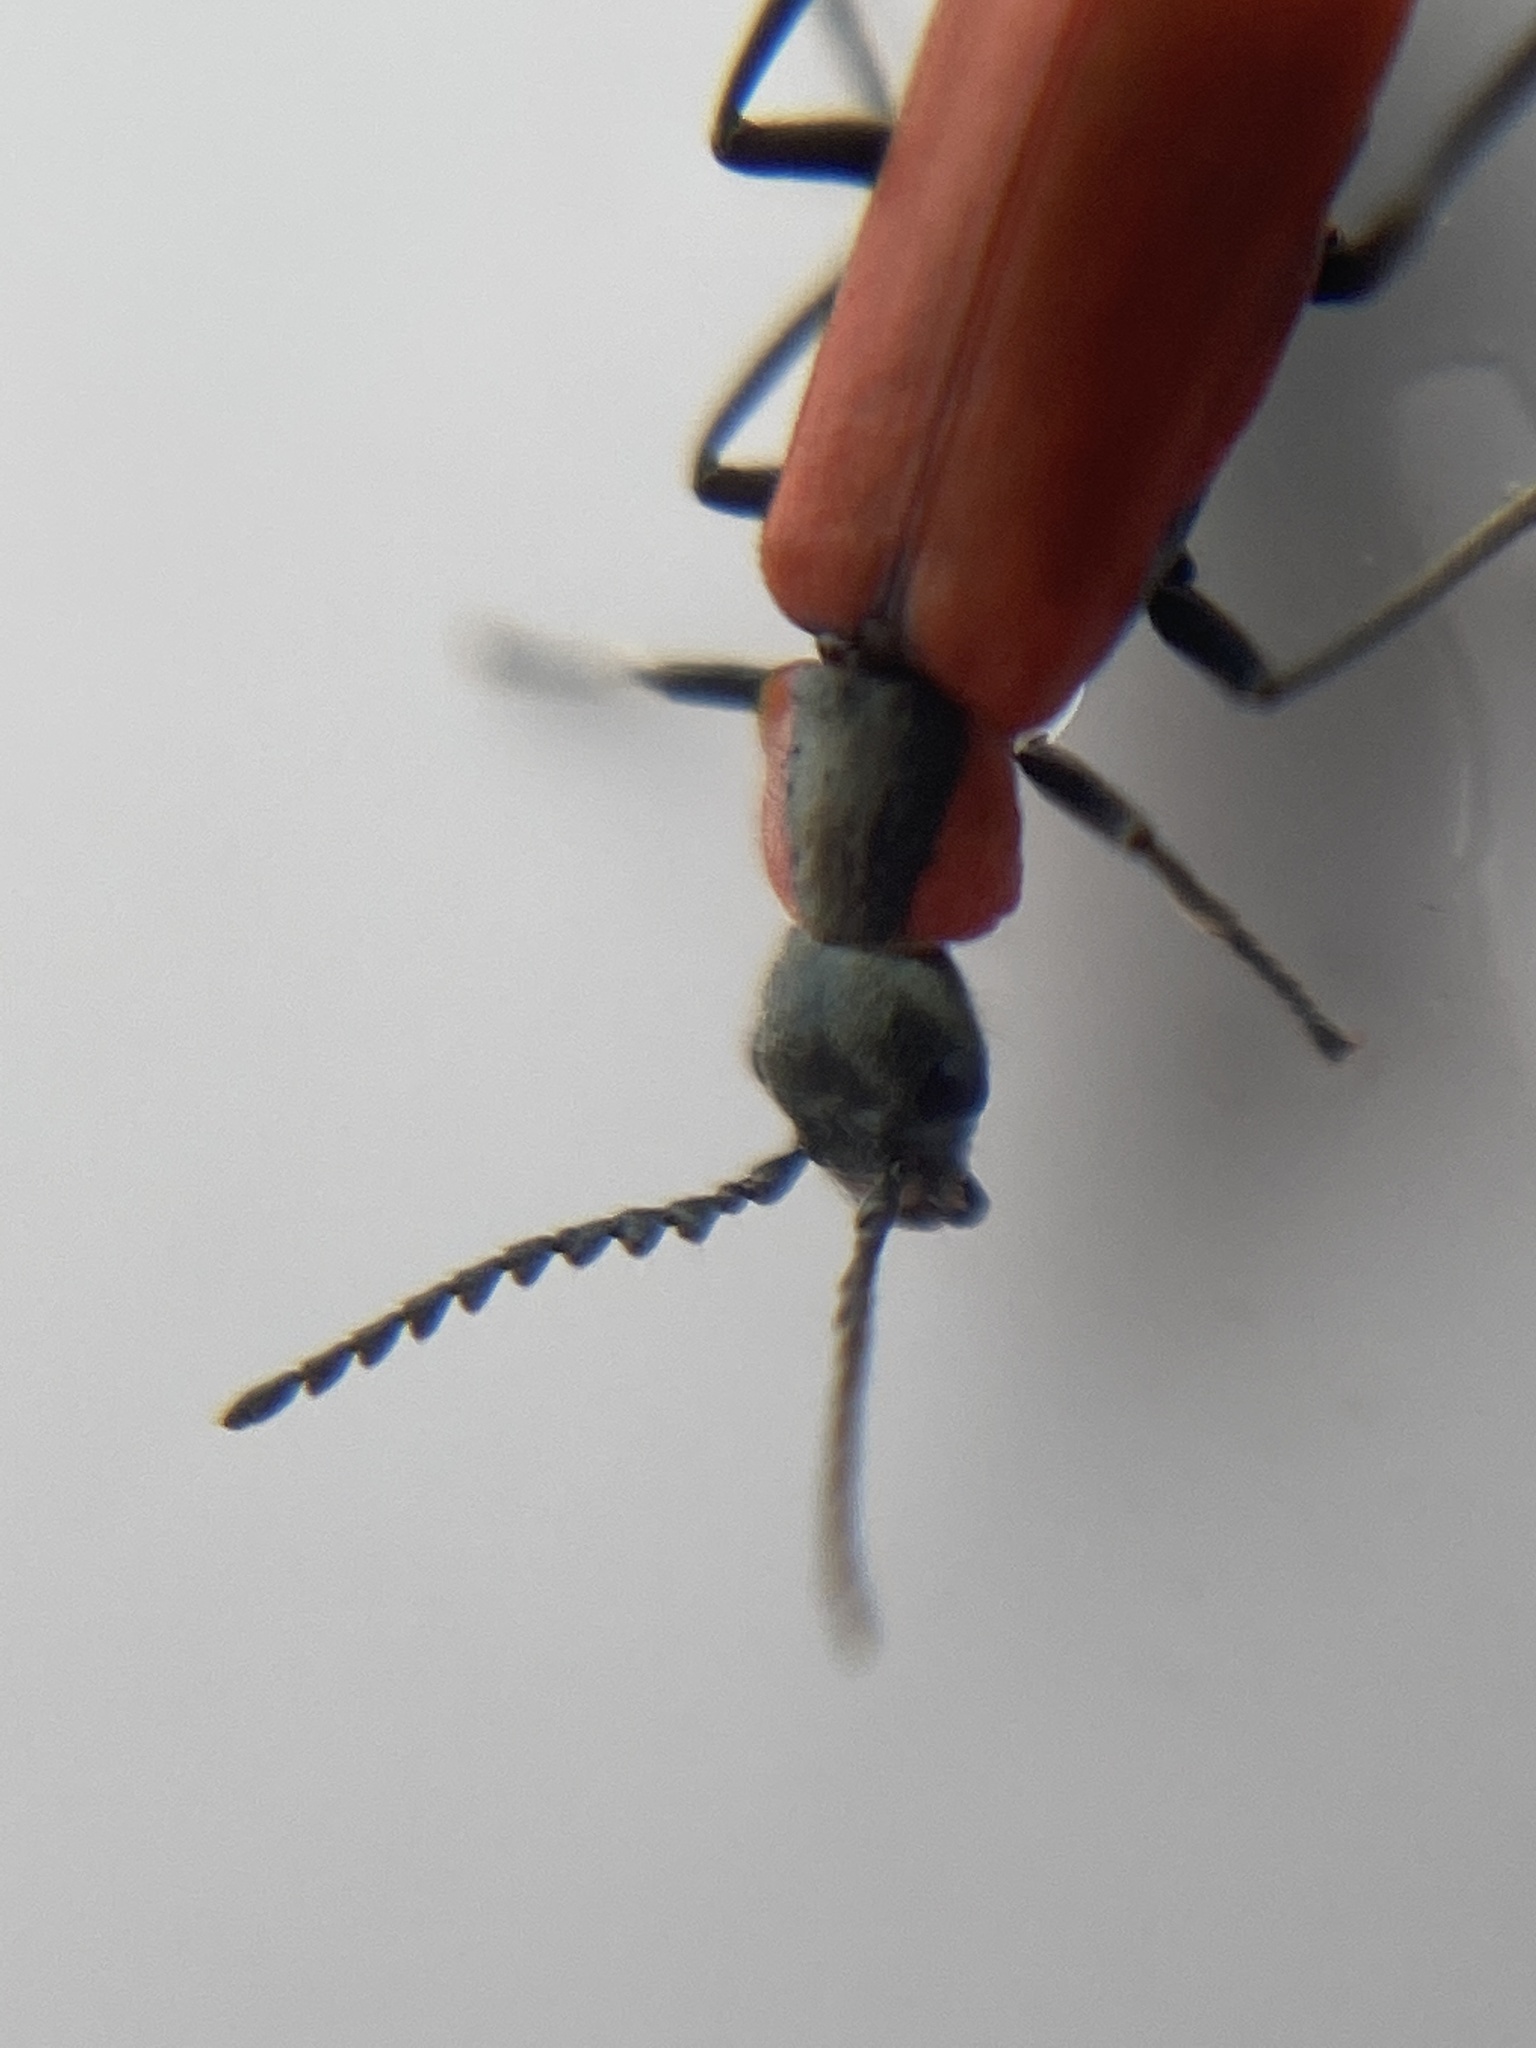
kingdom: Animalia
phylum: Arthropoda
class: Insecta
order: Coleoptera
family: Melyridae
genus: Anthocomus
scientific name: Anthocomus rufus
